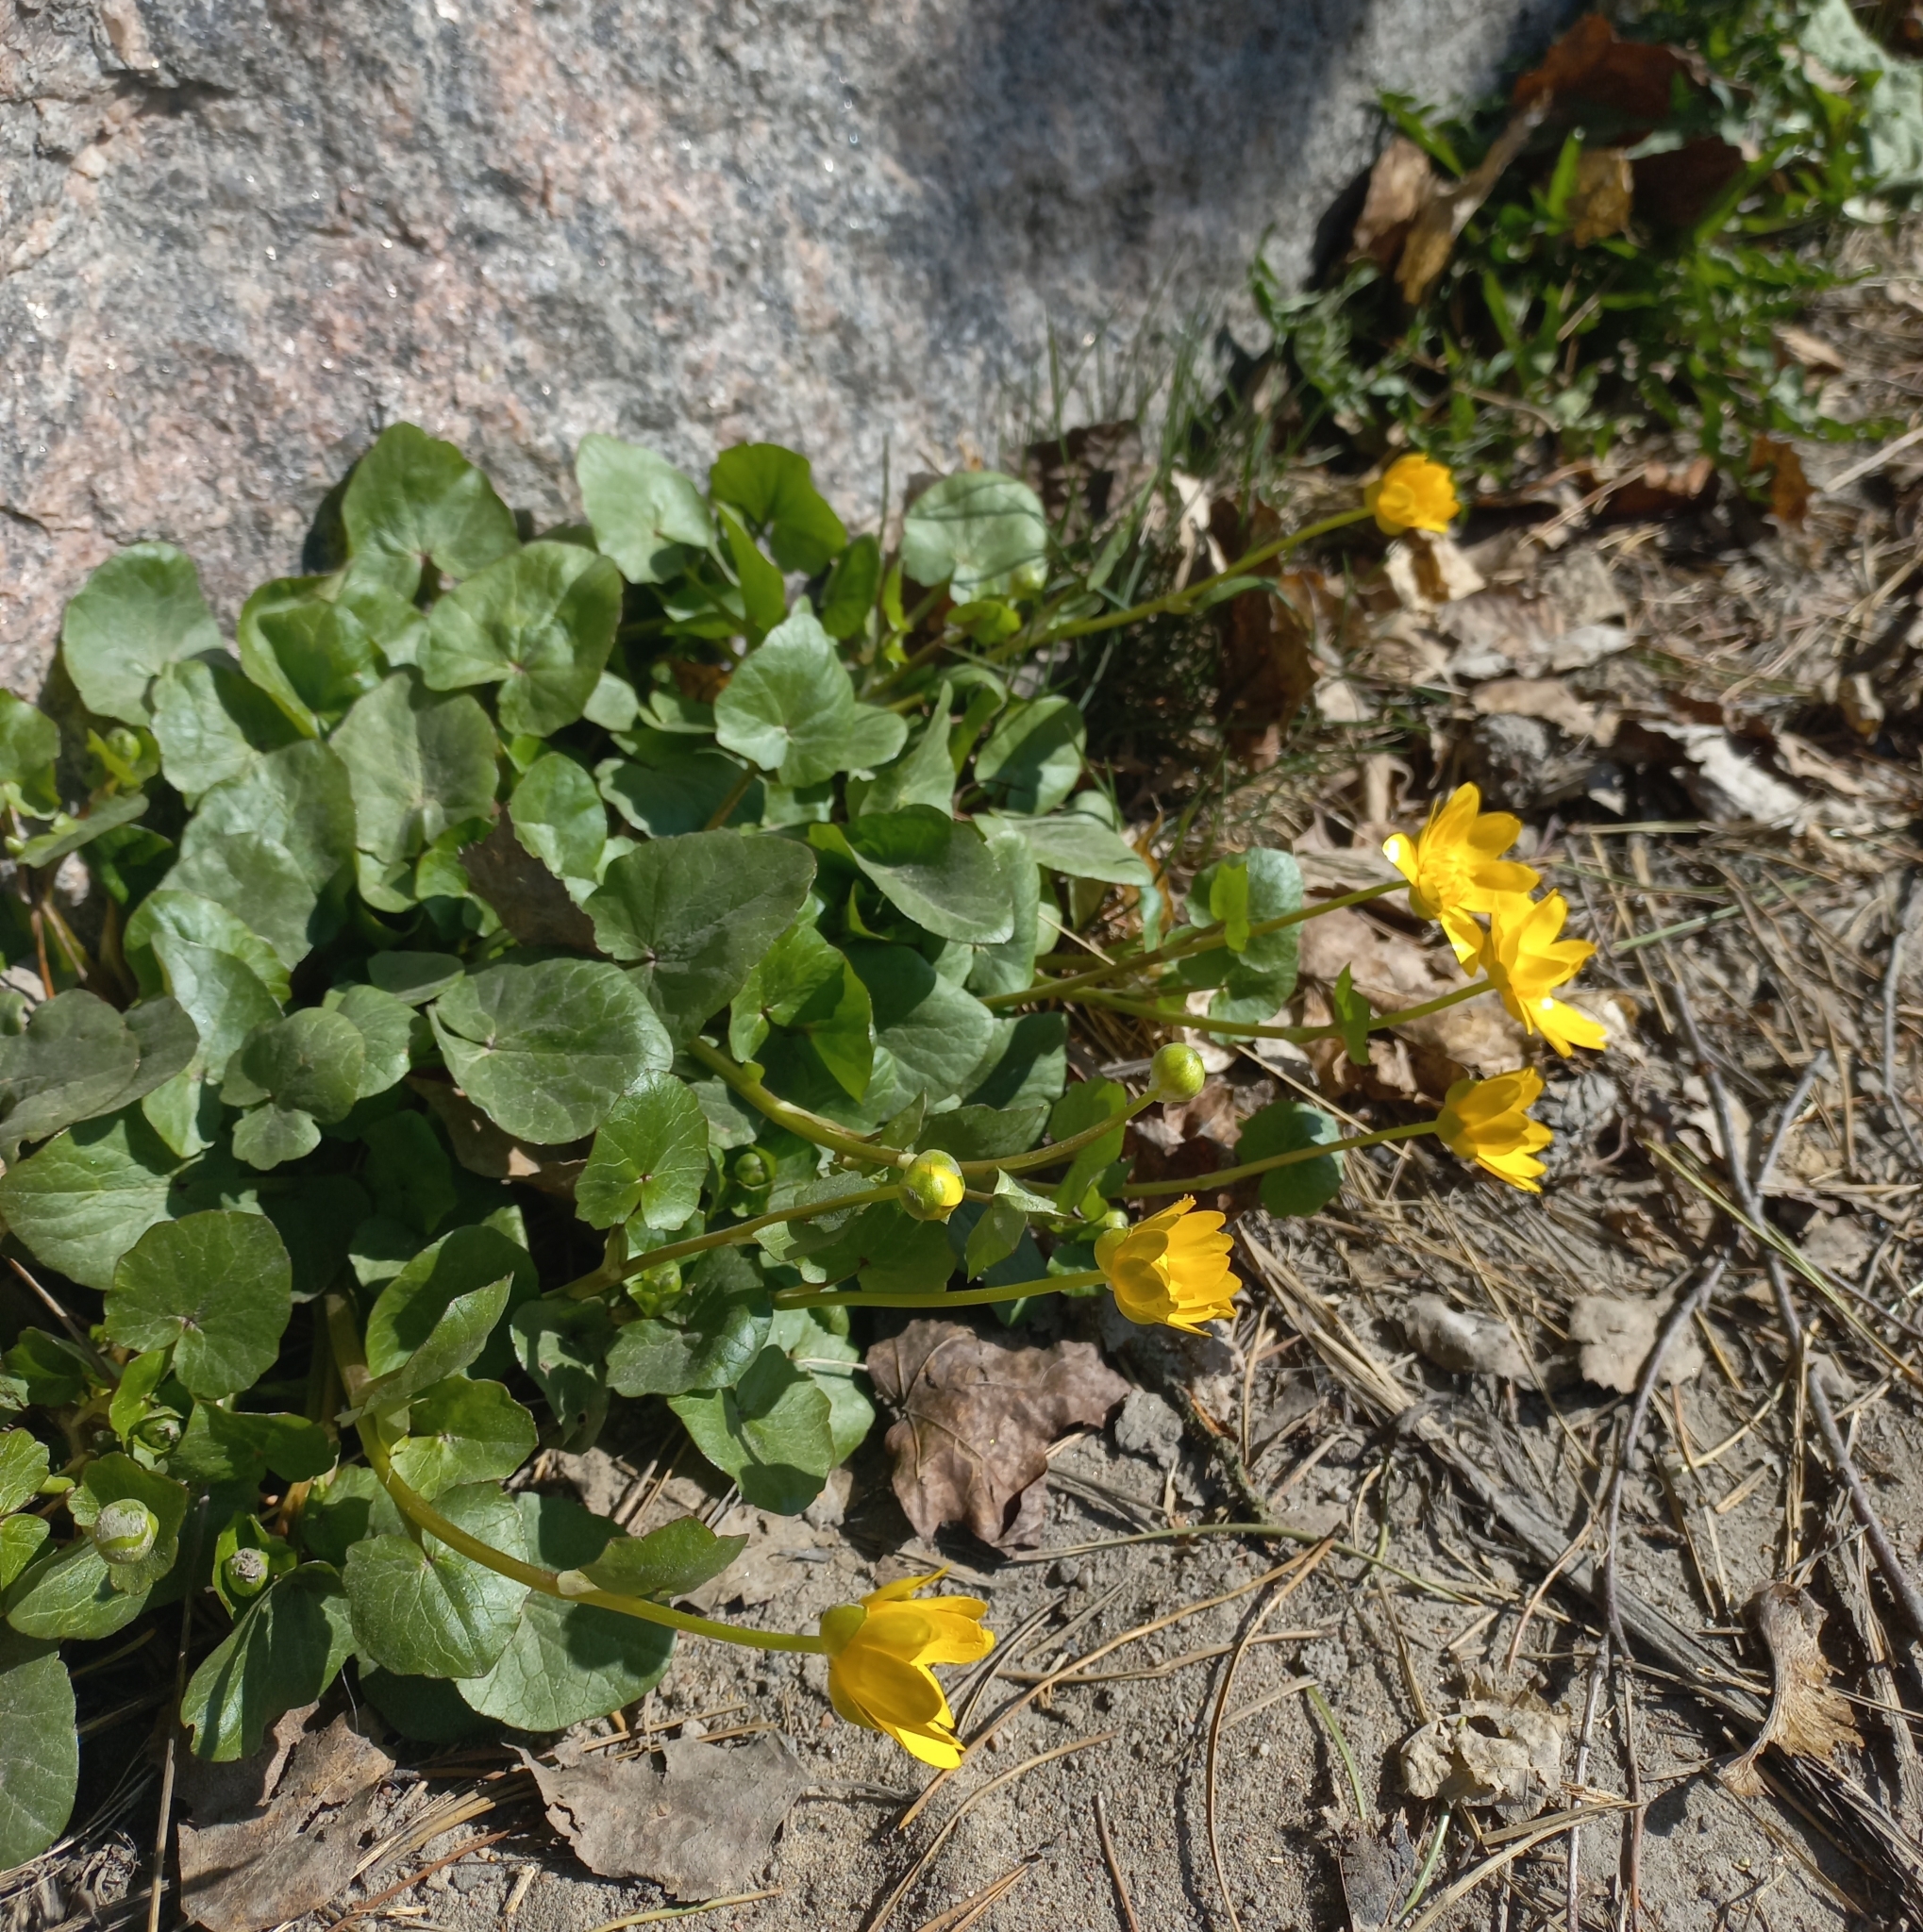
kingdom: Plantae
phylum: Tracheophyta
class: Magnoliopsida
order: Ranunculales
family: Ranunculaceae
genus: Ficaria
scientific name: Ficaria verna
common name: Lesser celandine
